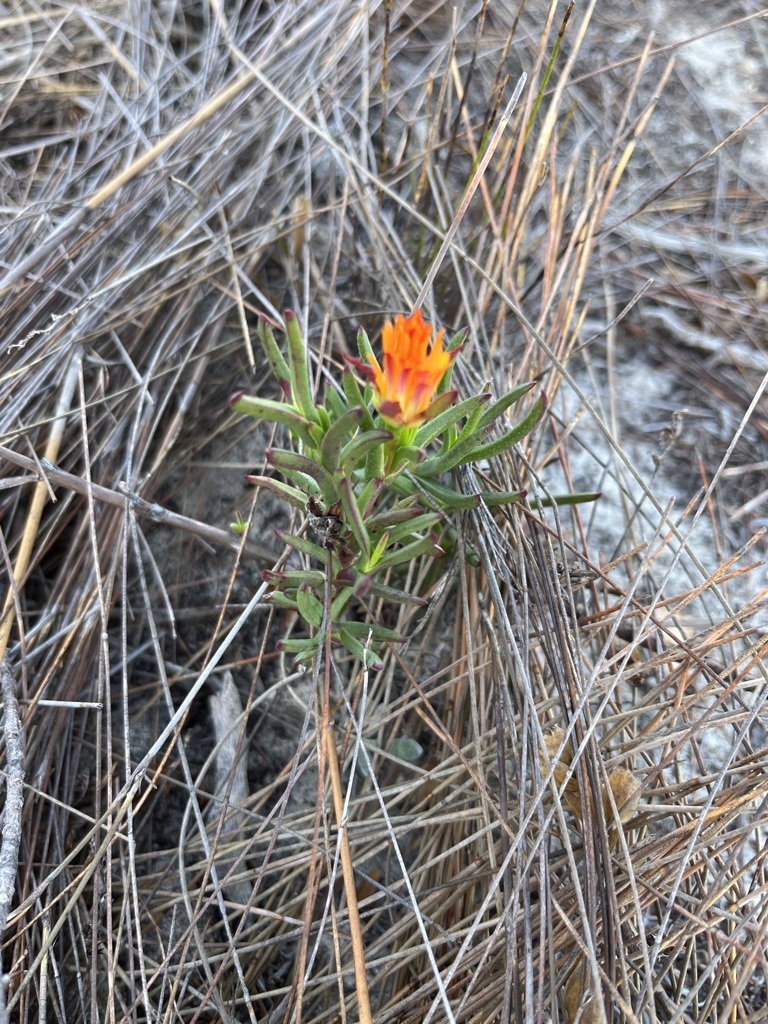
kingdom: Plantae
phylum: Tracheophyta
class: Magnoliopsida
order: Caryophyllales
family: Aizoaceae
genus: Lampranthus
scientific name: Lampranthus bicolor
